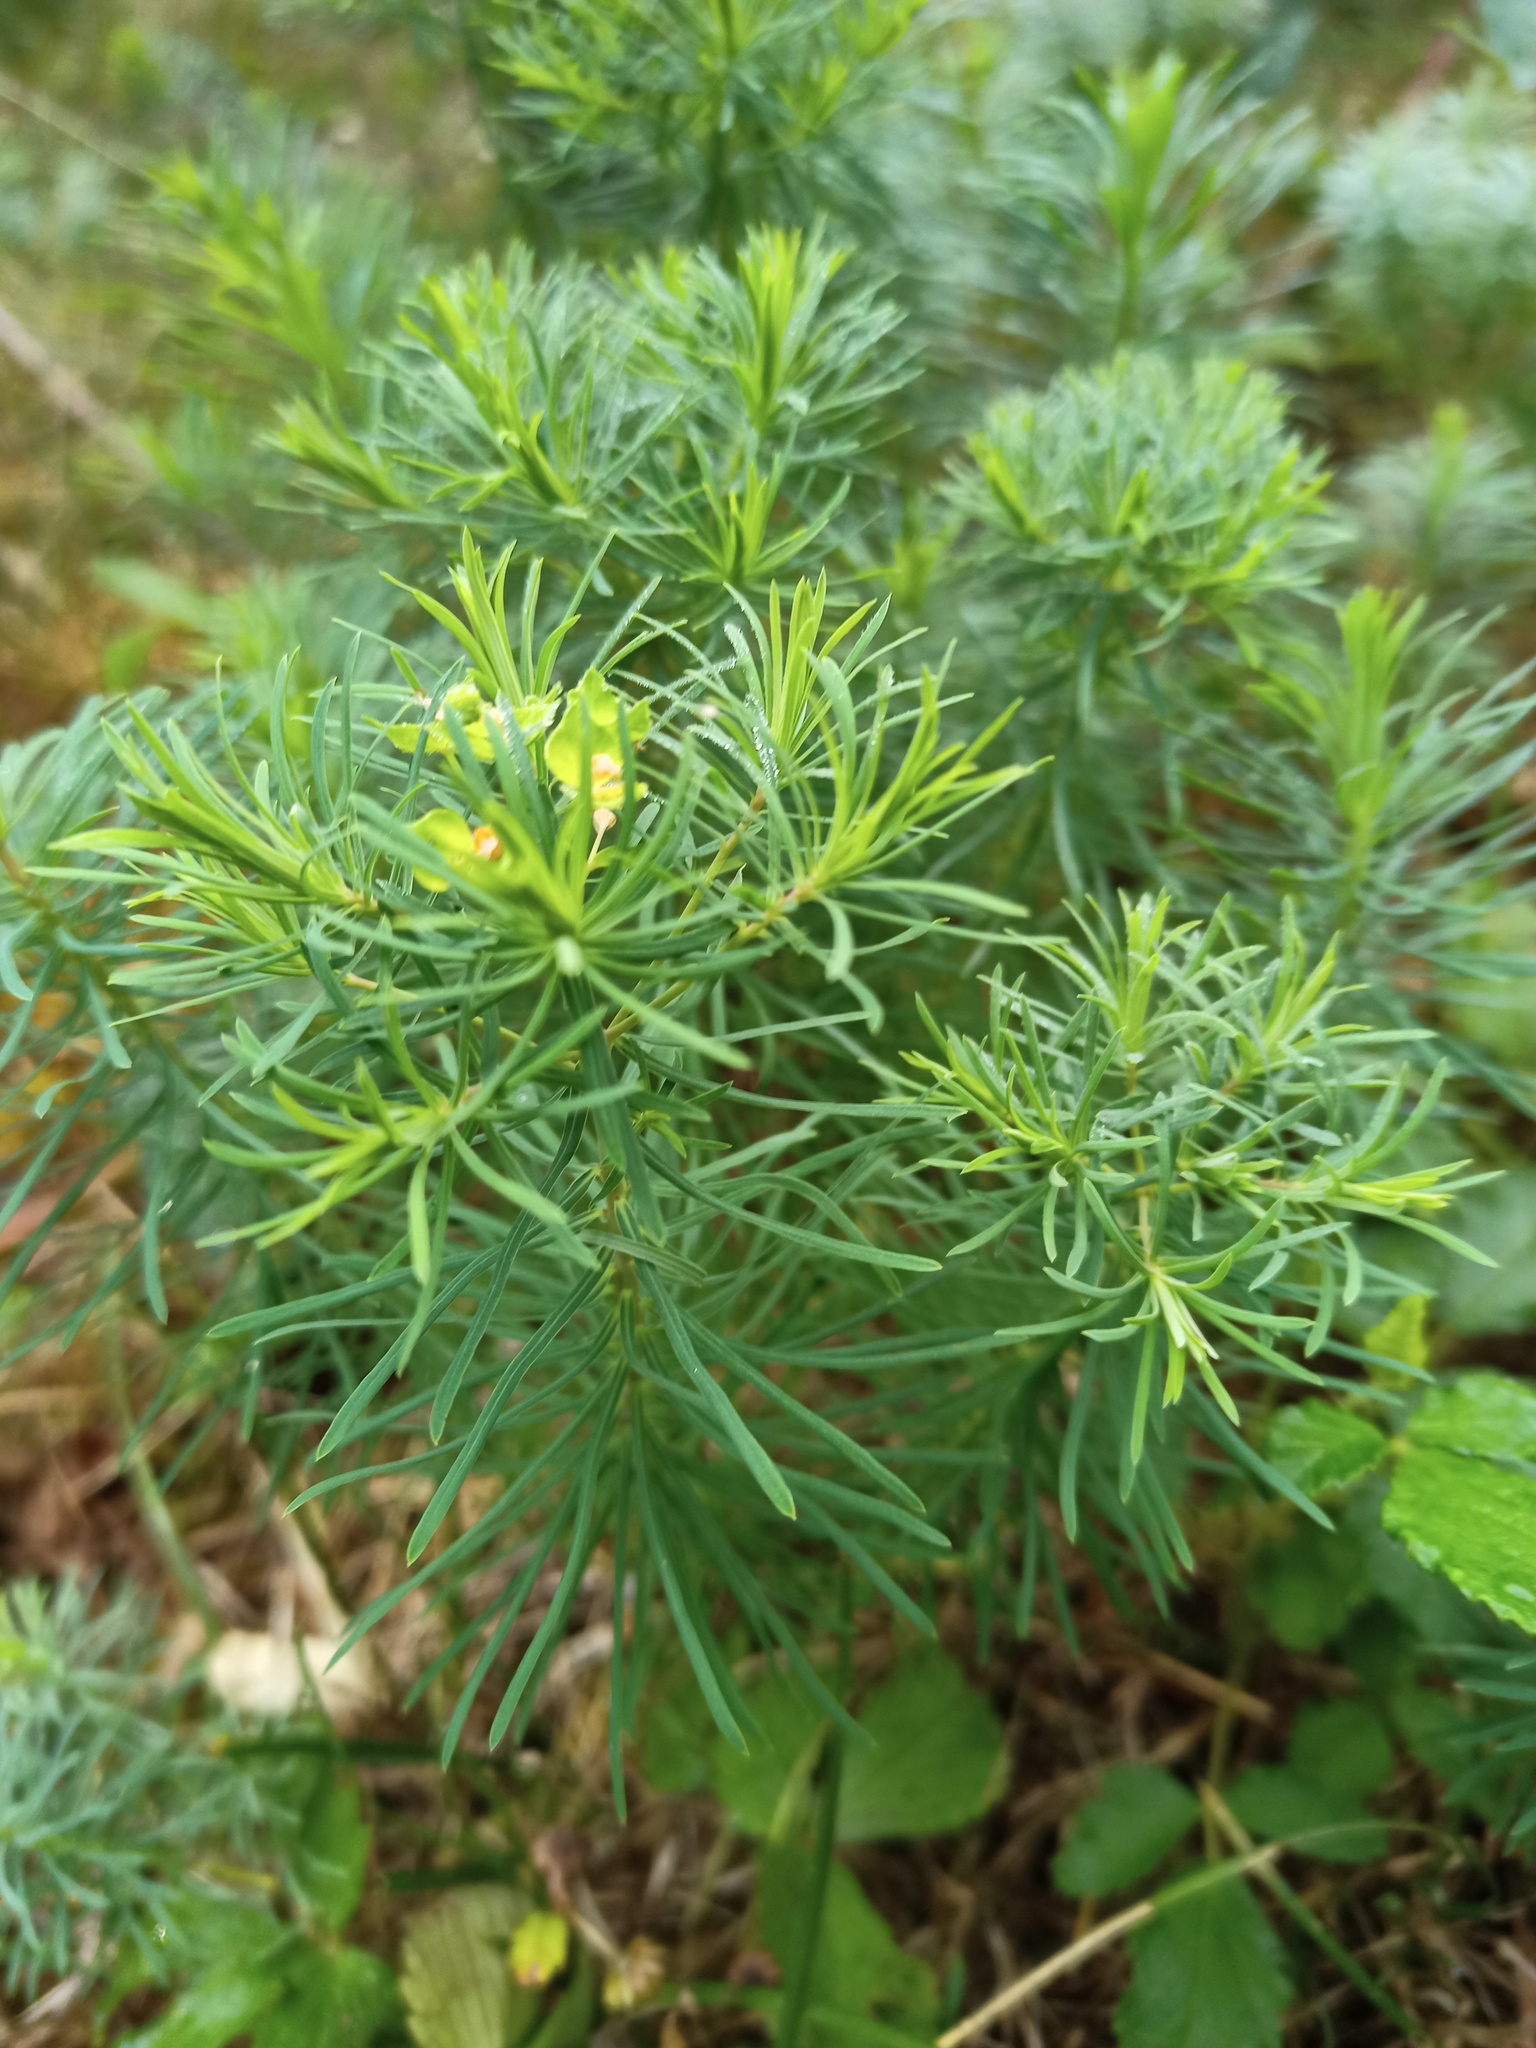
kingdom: Plantae
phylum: Tracheophyta
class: Magnoliopsida
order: Malpighiales
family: Euphorbiaceae
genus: Euphorbia
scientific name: Euphorbia cyparissias
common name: Cypress spurge
